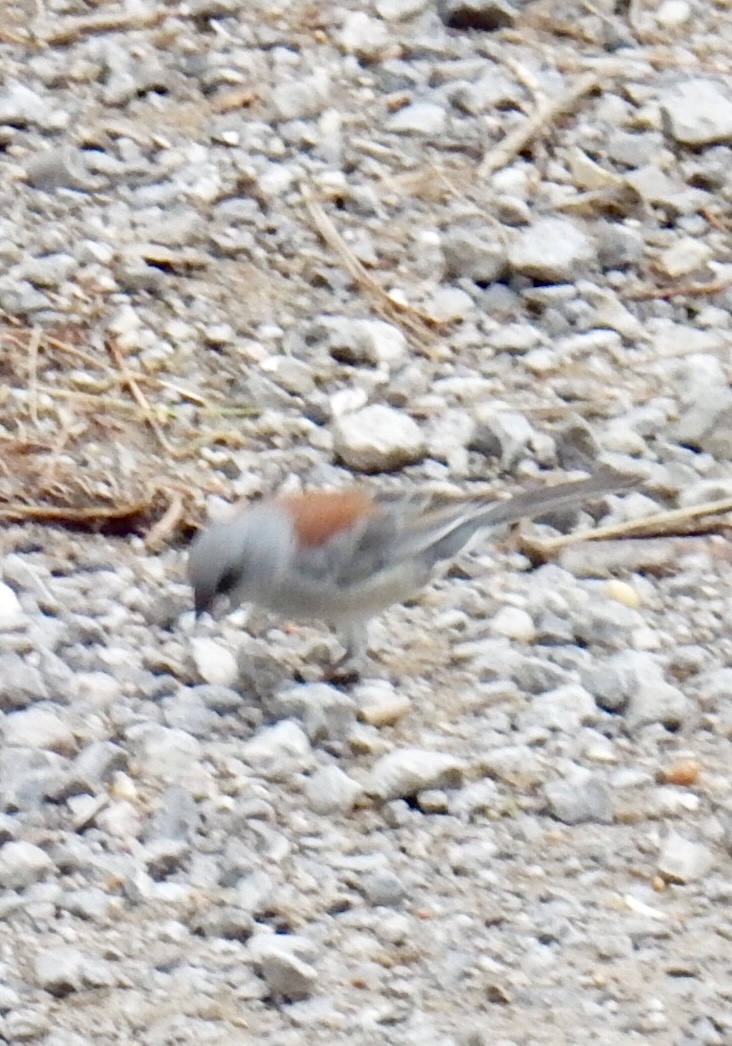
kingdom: Animalia
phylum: Chordata
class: Aves
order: Passeriformes
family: Passerellidae
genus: Junco
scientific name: Junco hyemalis
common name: Dark-eyed junco
